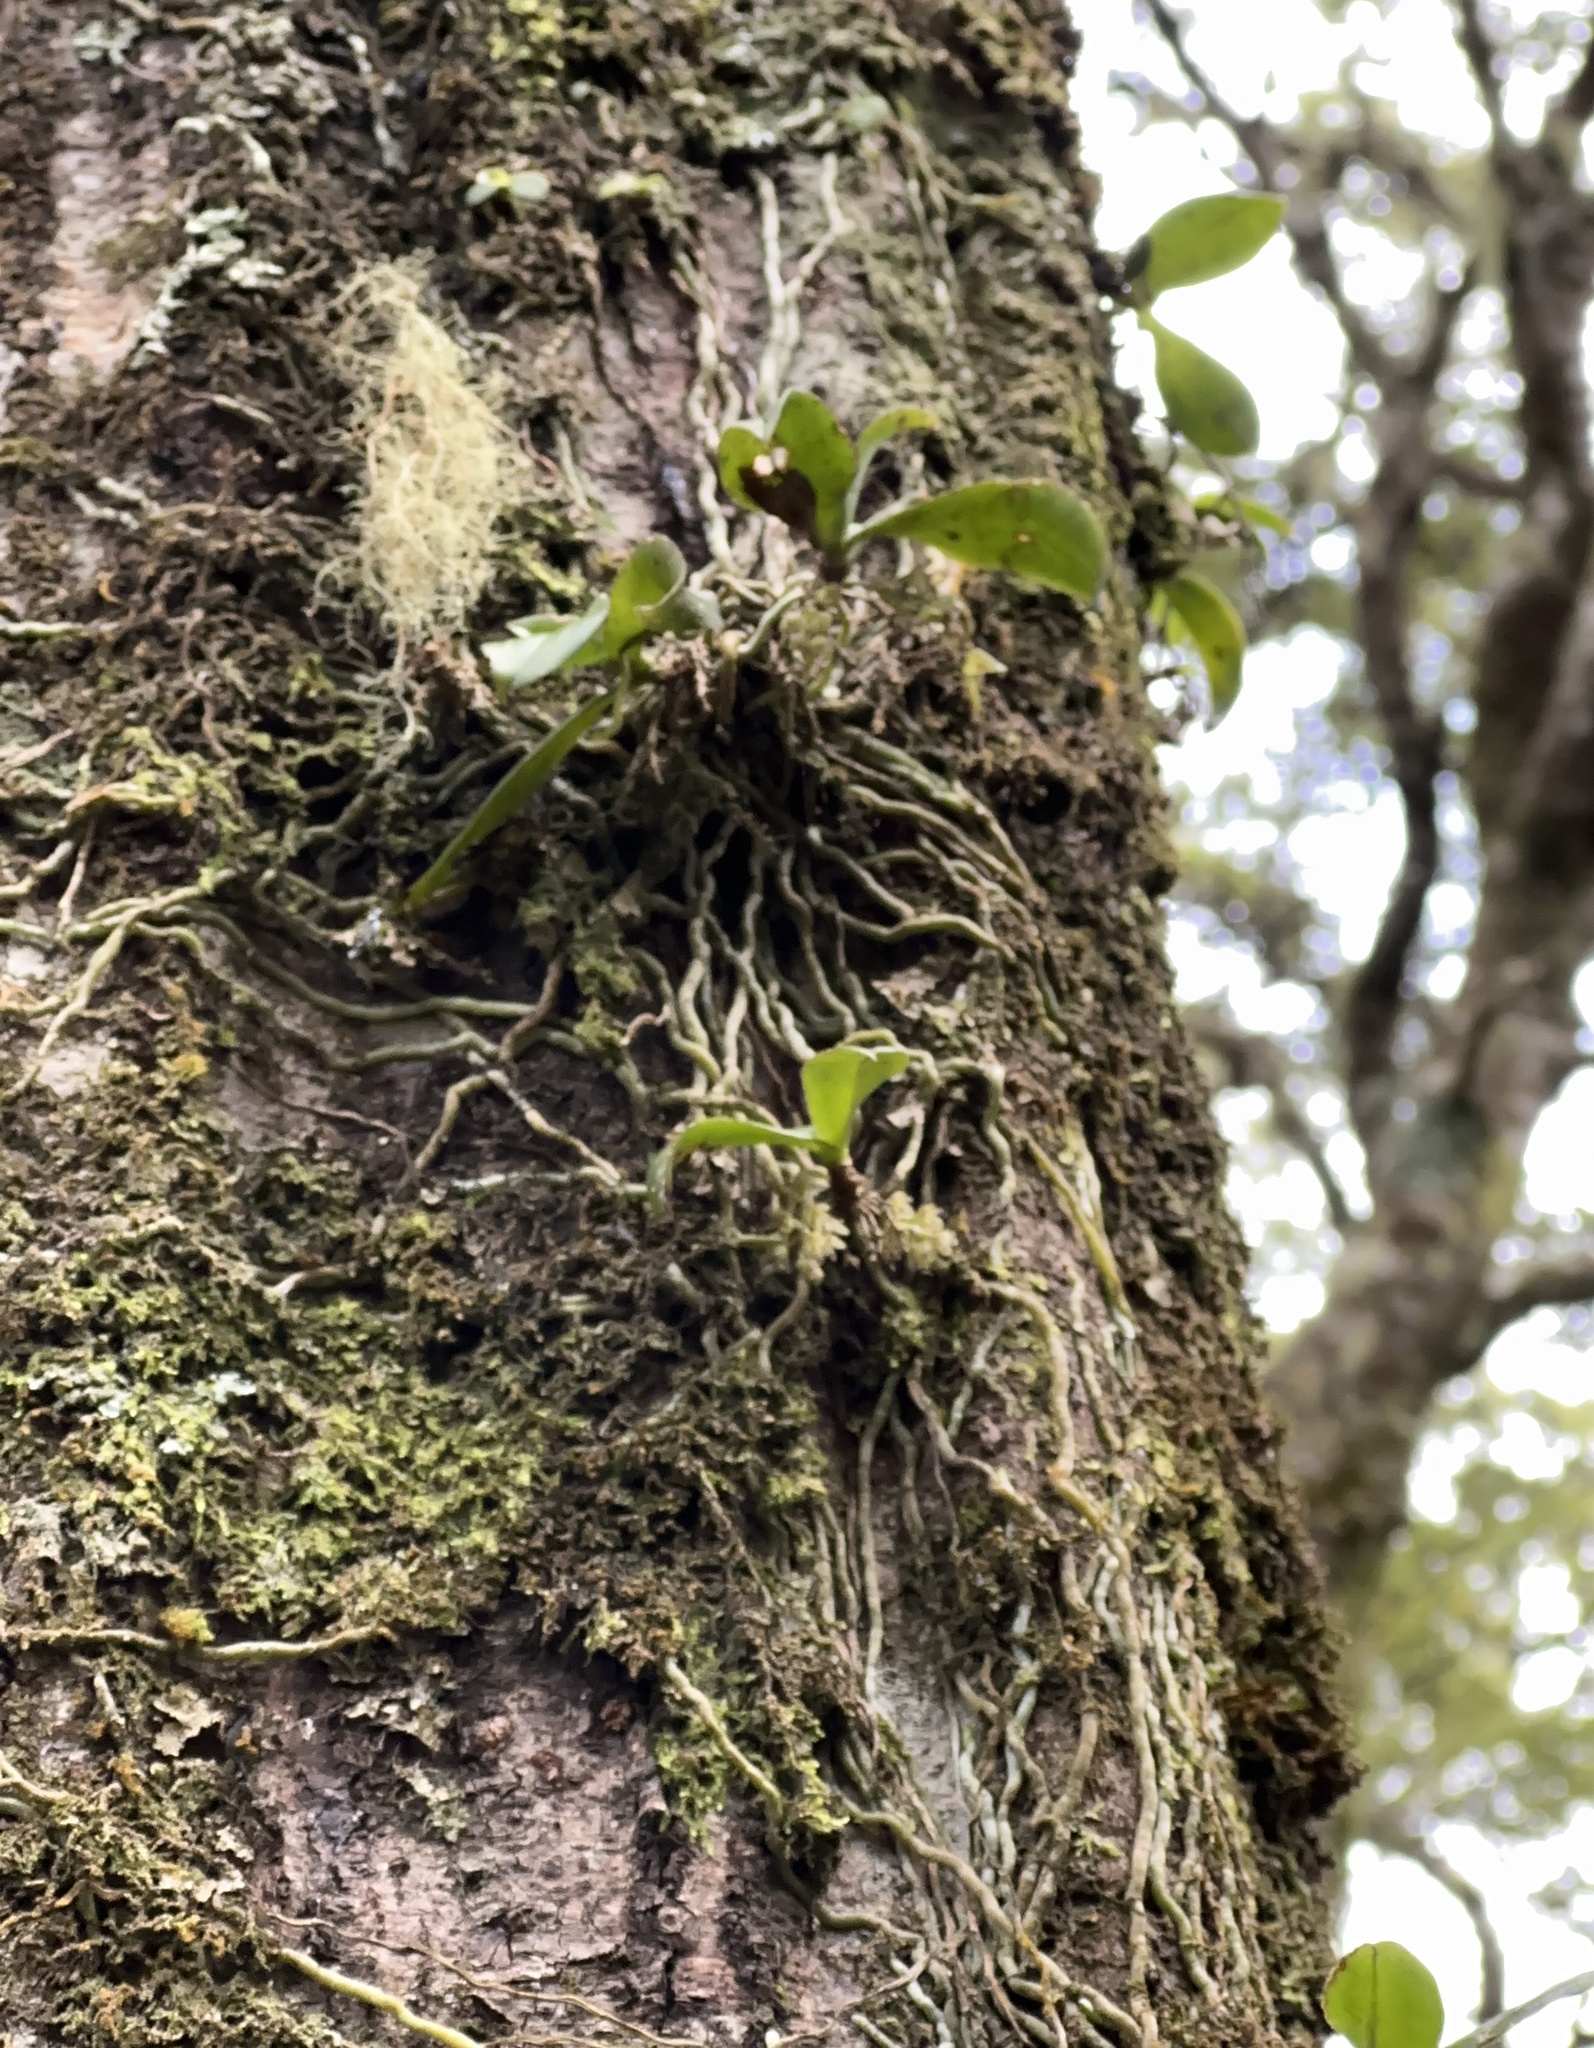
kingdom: Plantae
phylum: Tracheophyta
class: Liliopsida
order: Asparagales
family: Orchidaceae
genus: Drymoanthus
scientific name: Drymoanthus adversus
